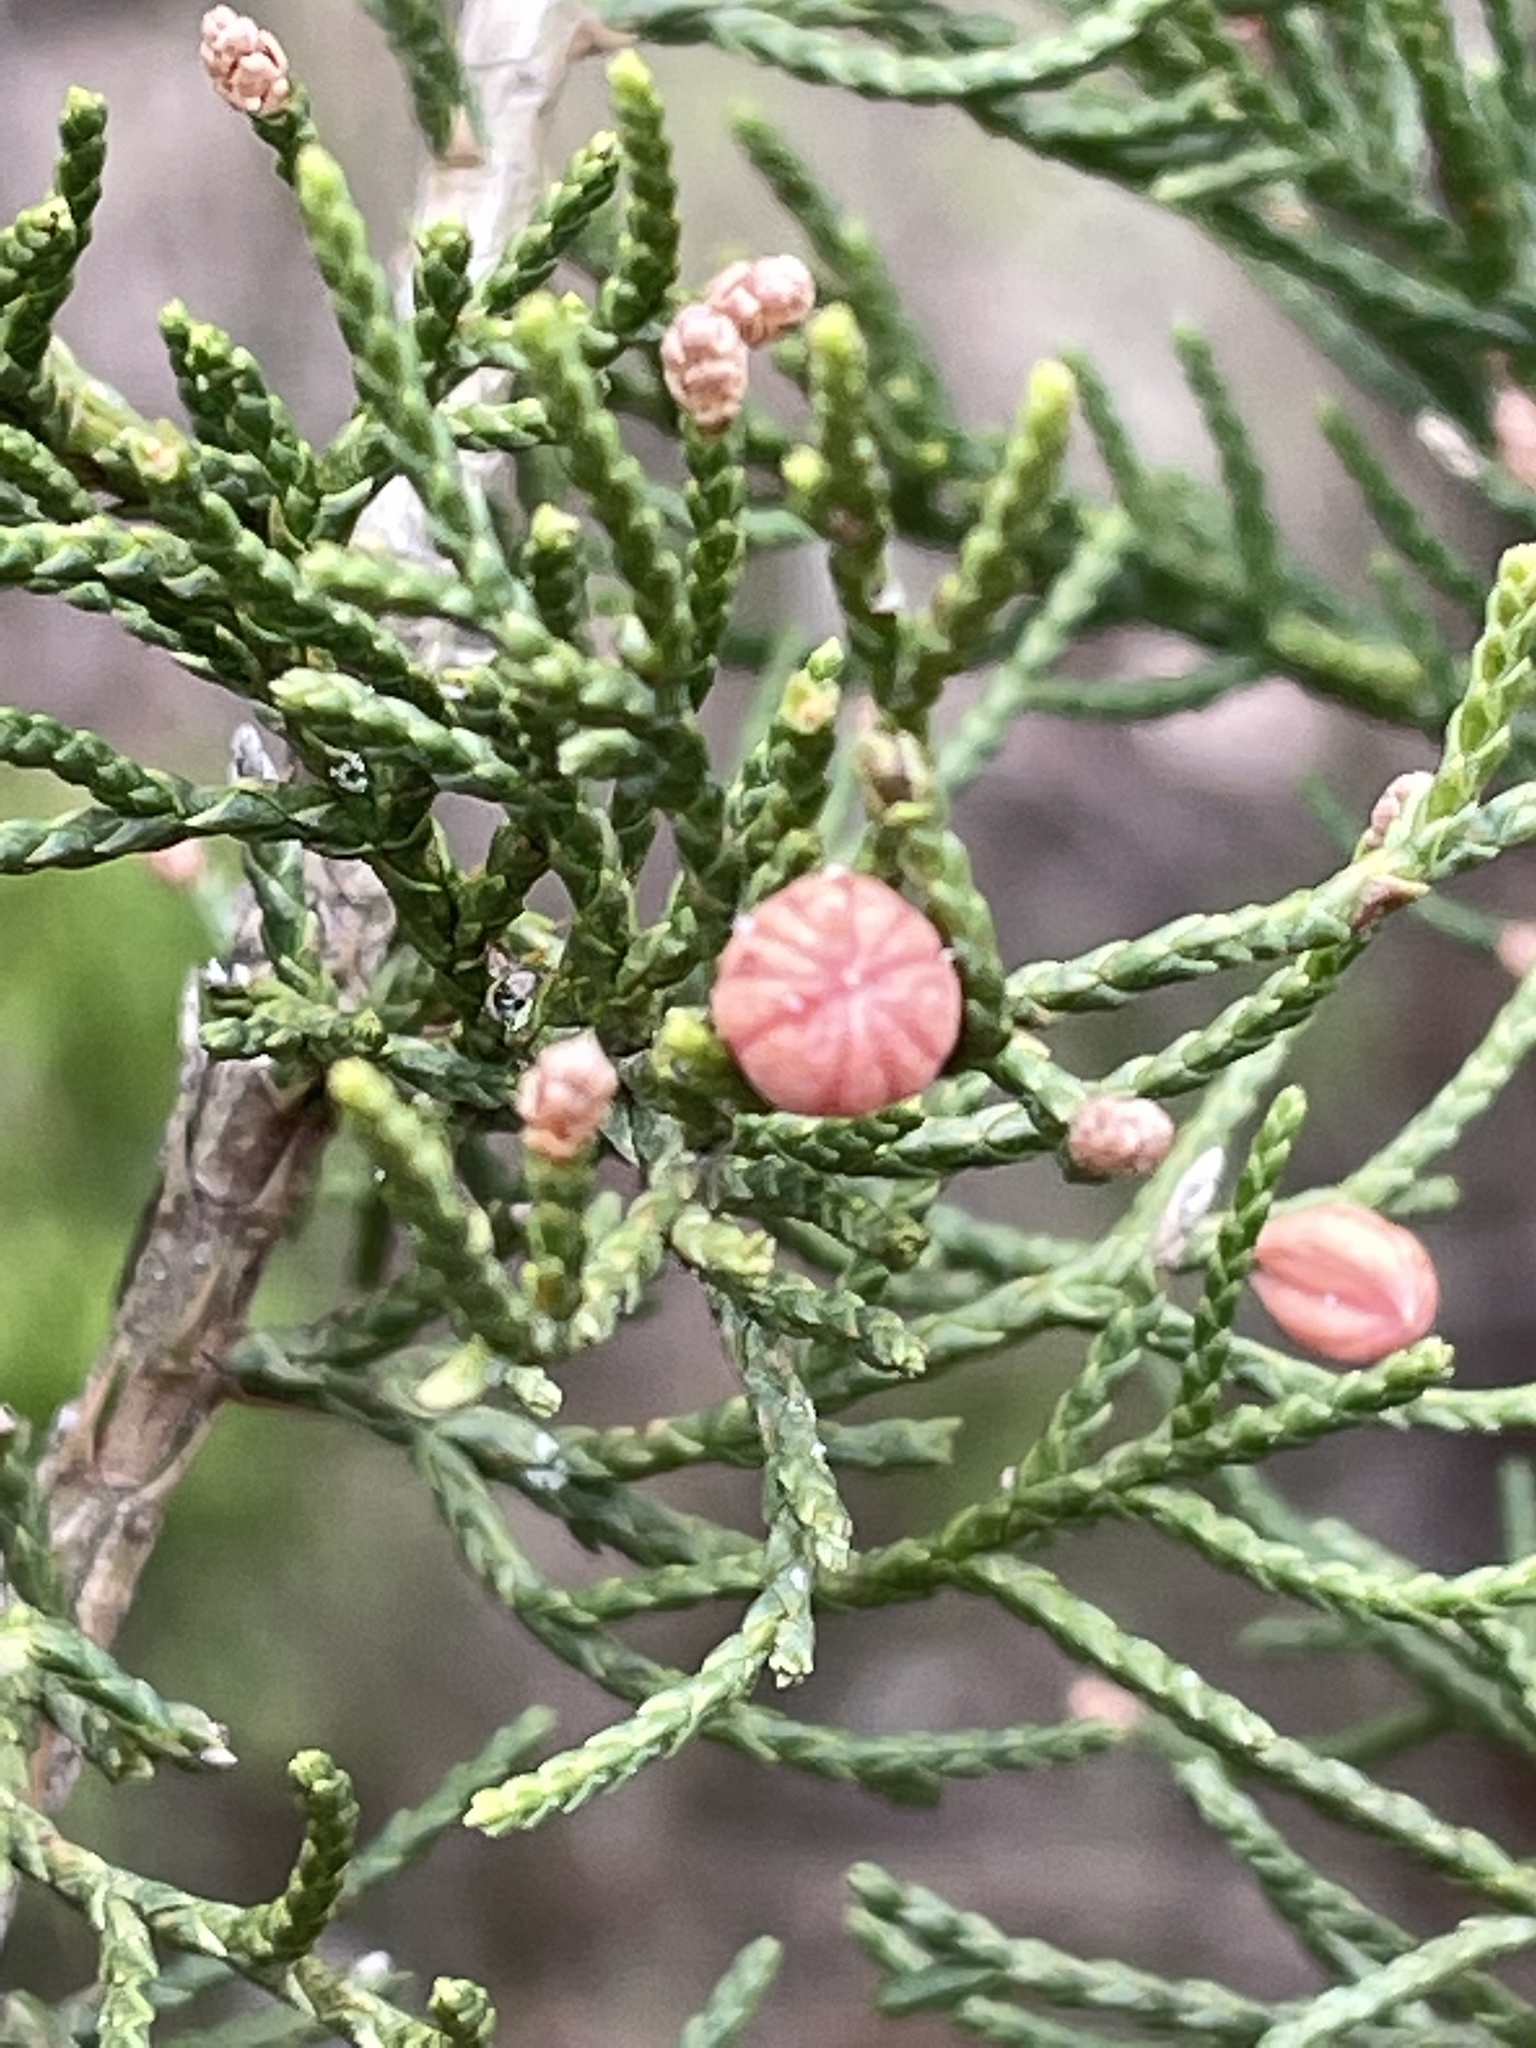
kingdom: Animalia
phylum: Arthropoda
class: Insecta
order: Diptera
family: Cecidomyiidae
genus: Walshomyia
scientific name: Walshomyia texana
